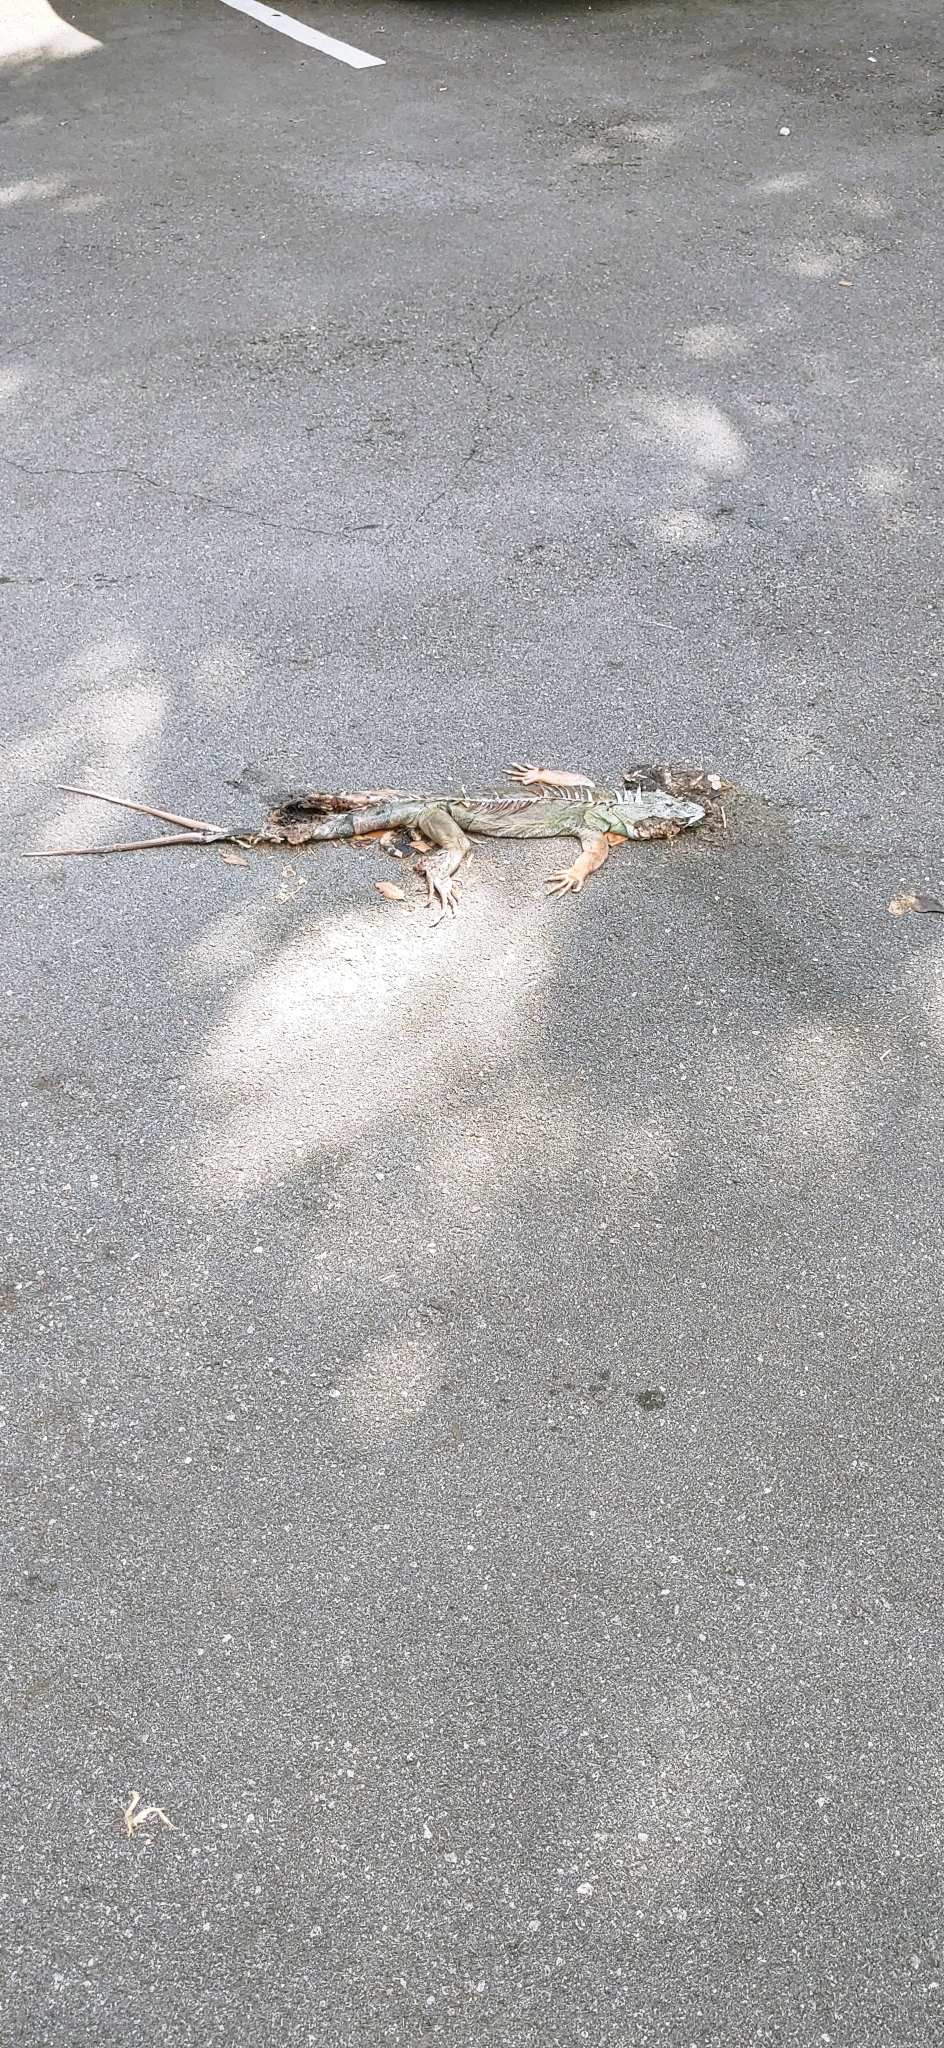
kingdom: Animalia
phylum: Chordata
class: Squamata
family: Iguanidae
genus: Iguana
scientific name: Iguana iguana
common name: Green iguana
